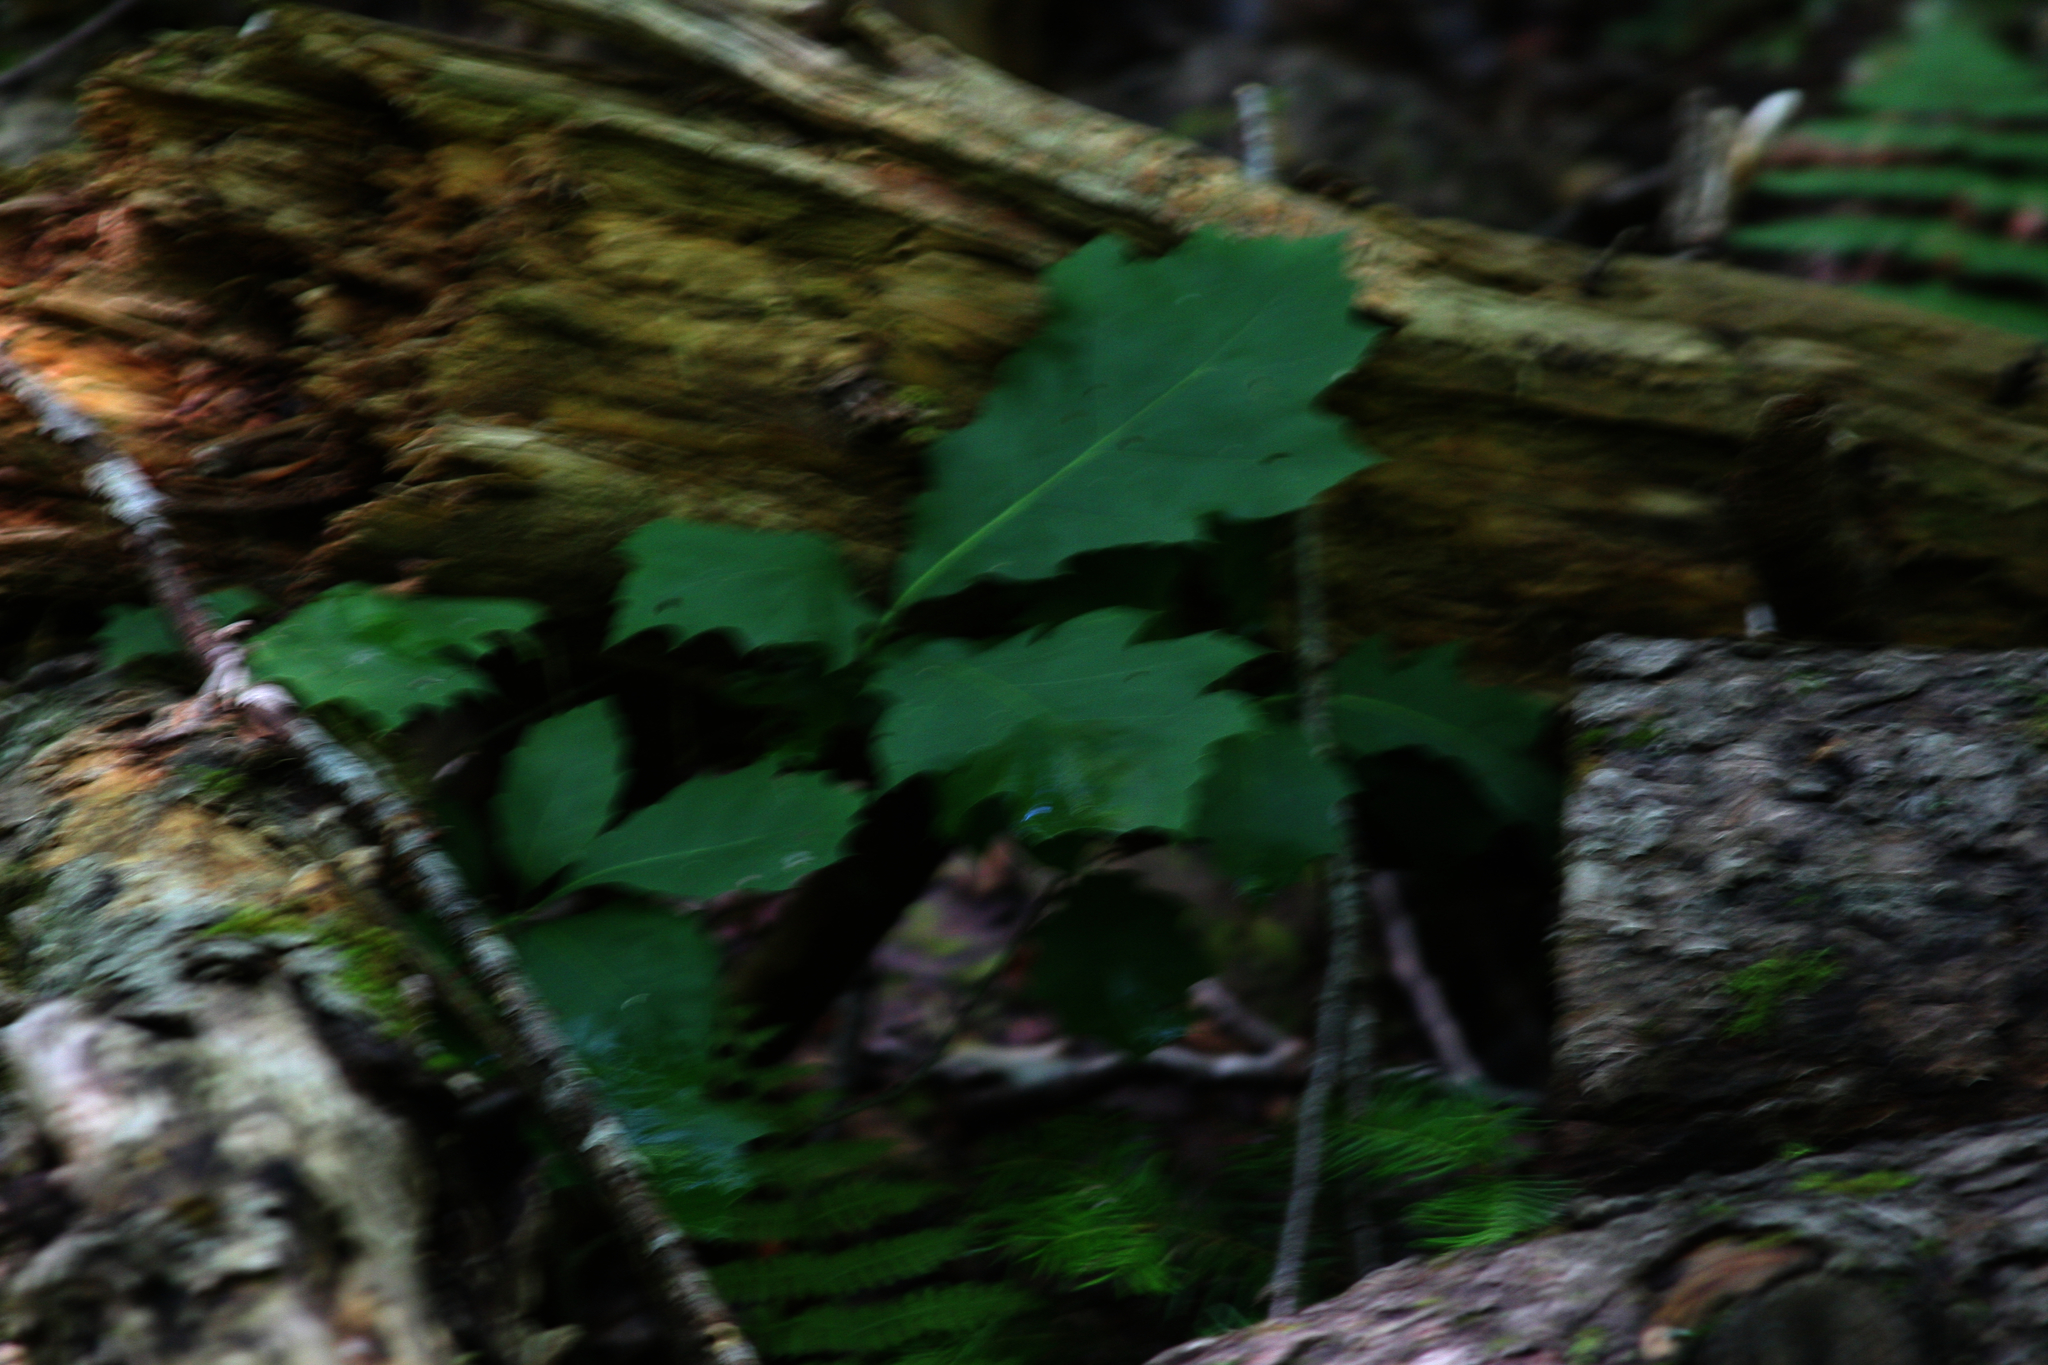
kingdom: Plantae
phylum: Tracheophyta
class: Magnoliopsida
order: Fagales
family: Fagaceae
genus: Quercus
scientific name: Quercus rubra
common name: Red oak
